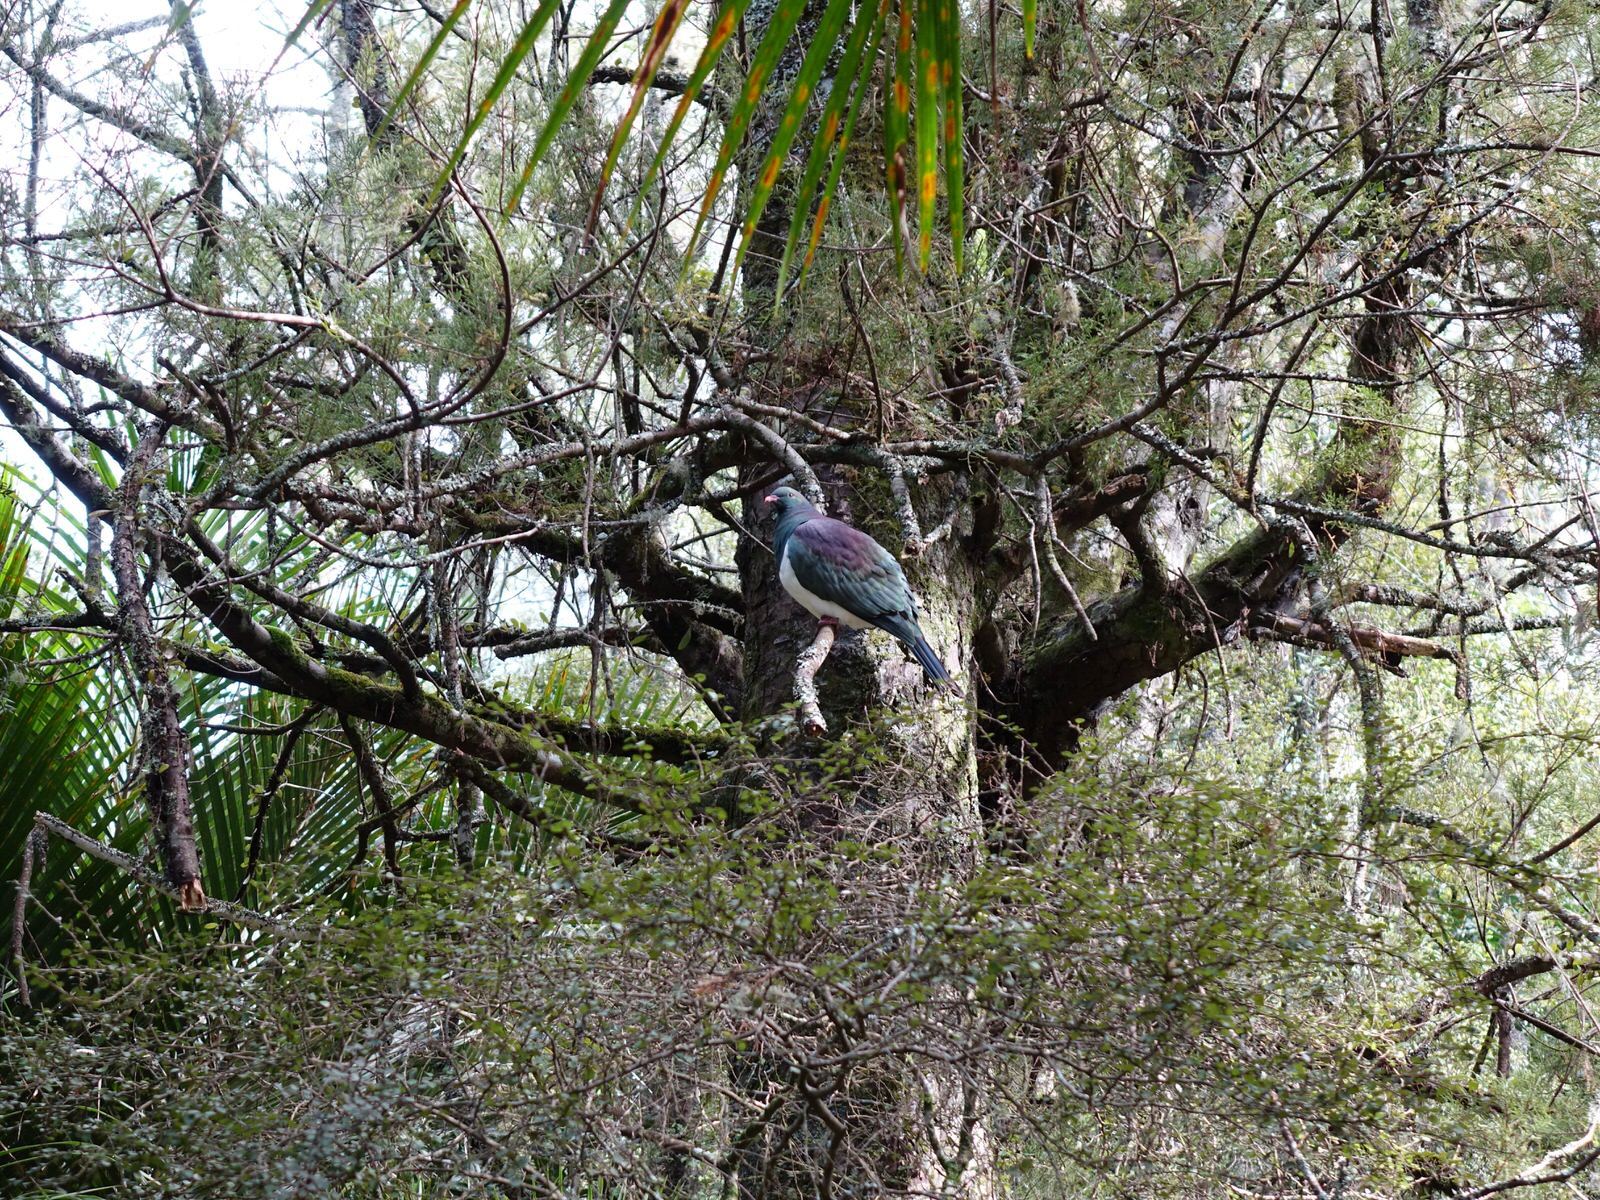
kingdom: Animalia
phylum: Chordata
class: Aves
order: Columbiformes
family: Columbidae
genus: Hemiphaga
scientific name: Hemiphaga novaeseelandiae
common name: New zealand pigeon
